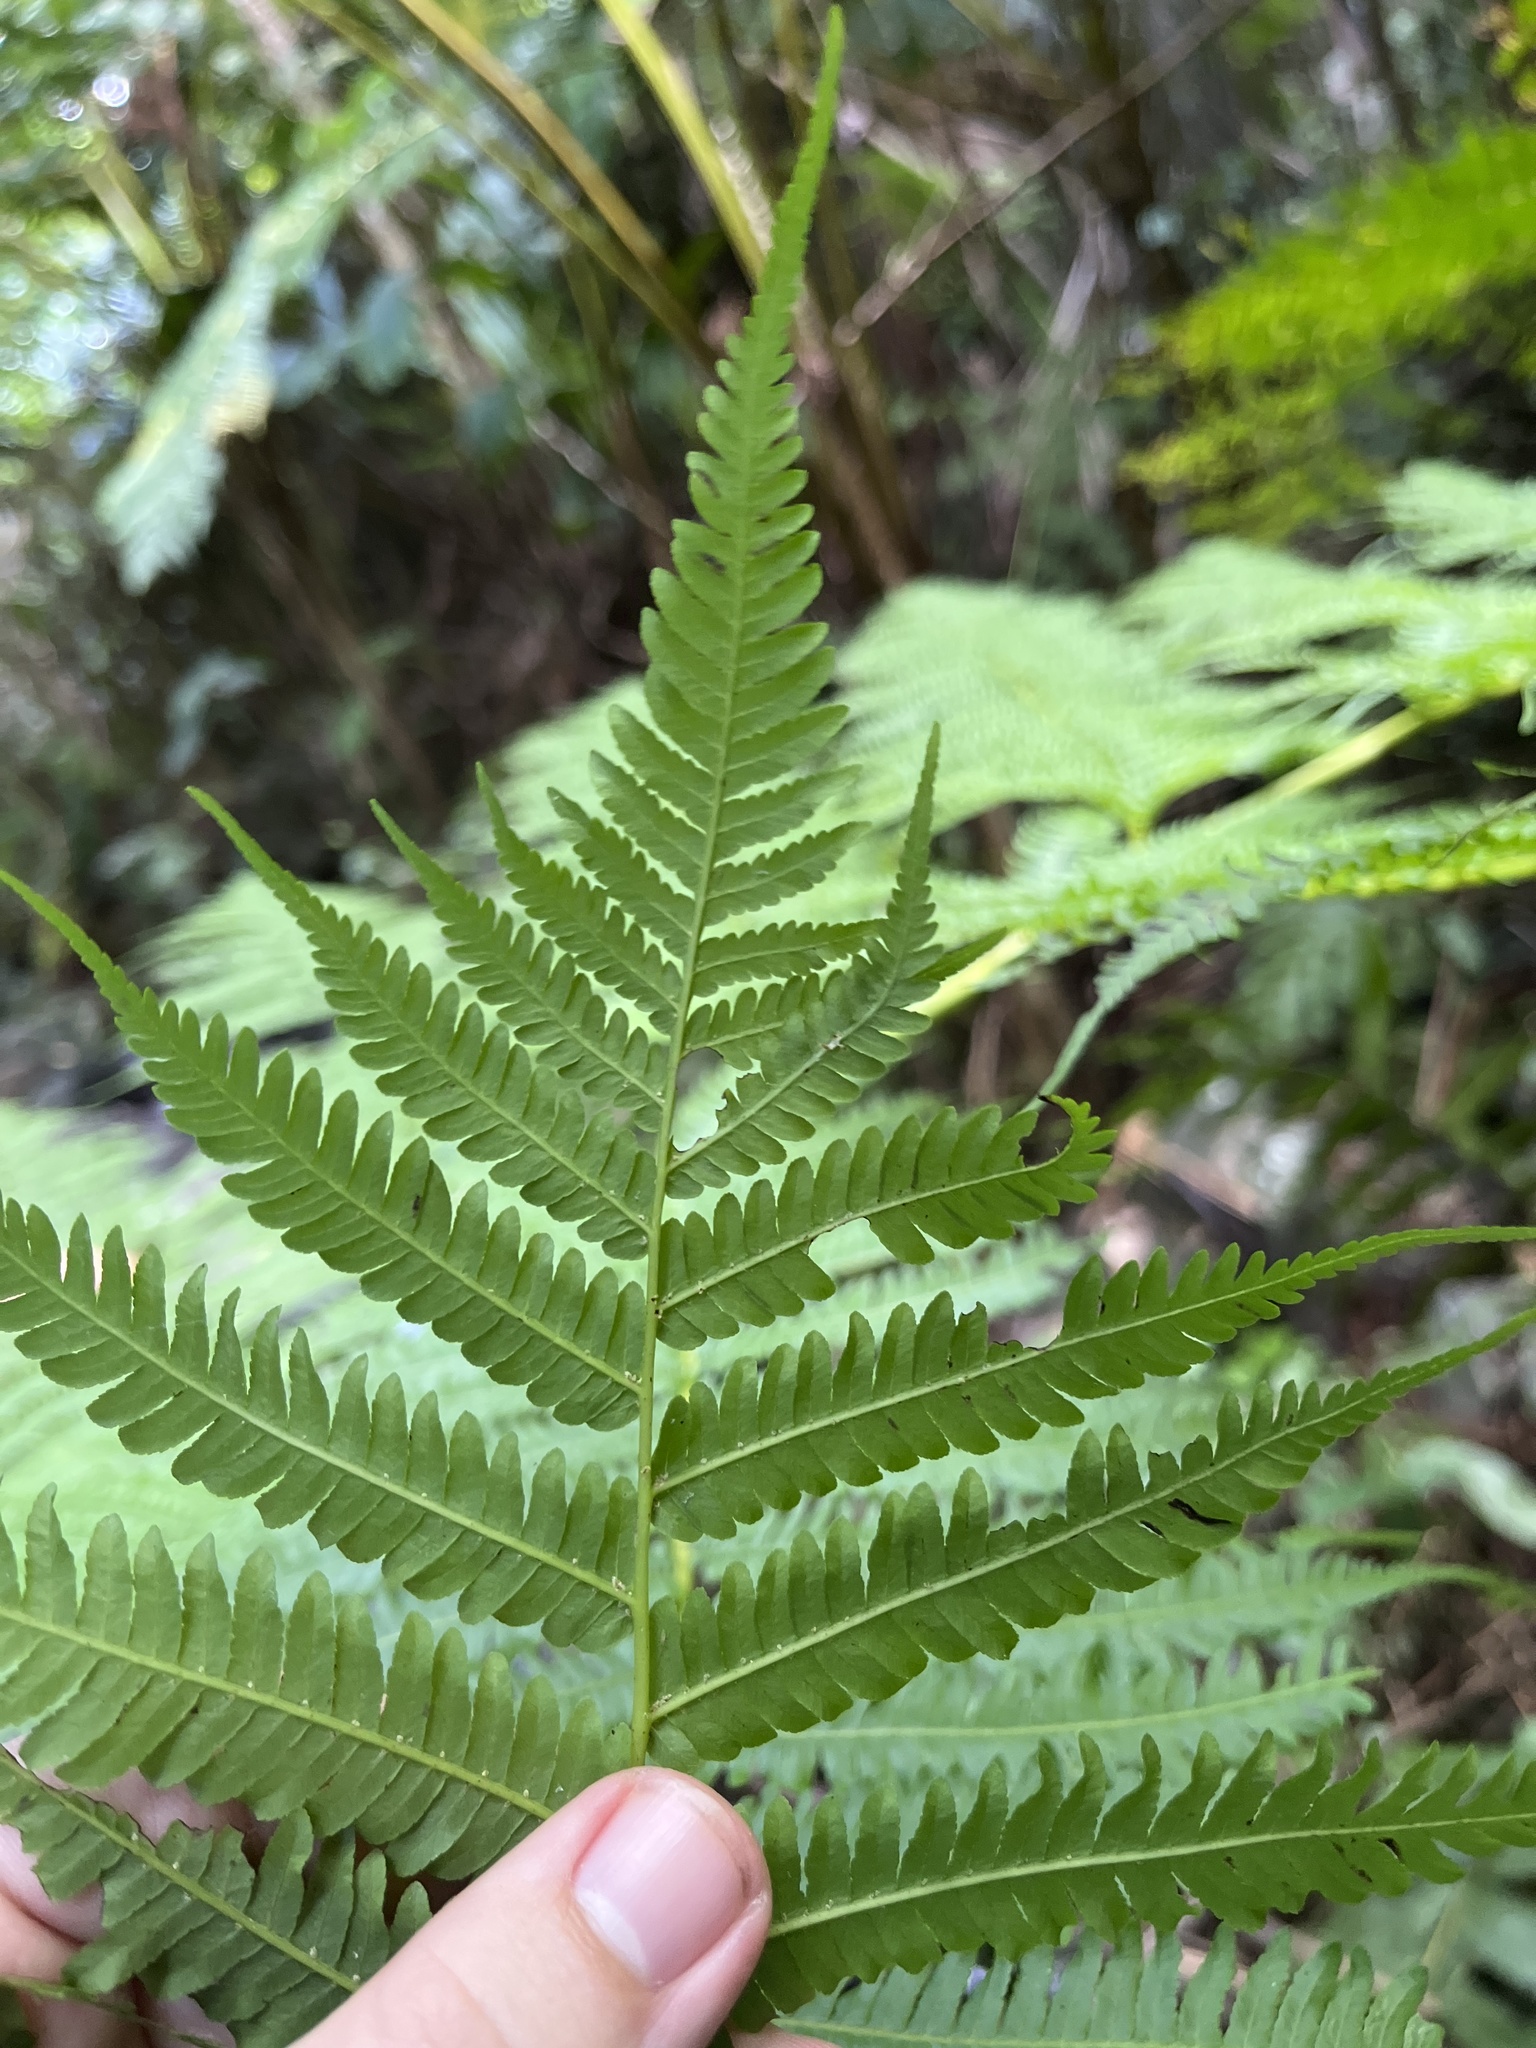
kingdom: Plantae
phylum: Tracheophyta
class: Polypodiopsida
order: Cyatheales
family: Cyatheaceae
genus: Cyathea
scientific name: Cyathea arborea
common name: West indian treefern
